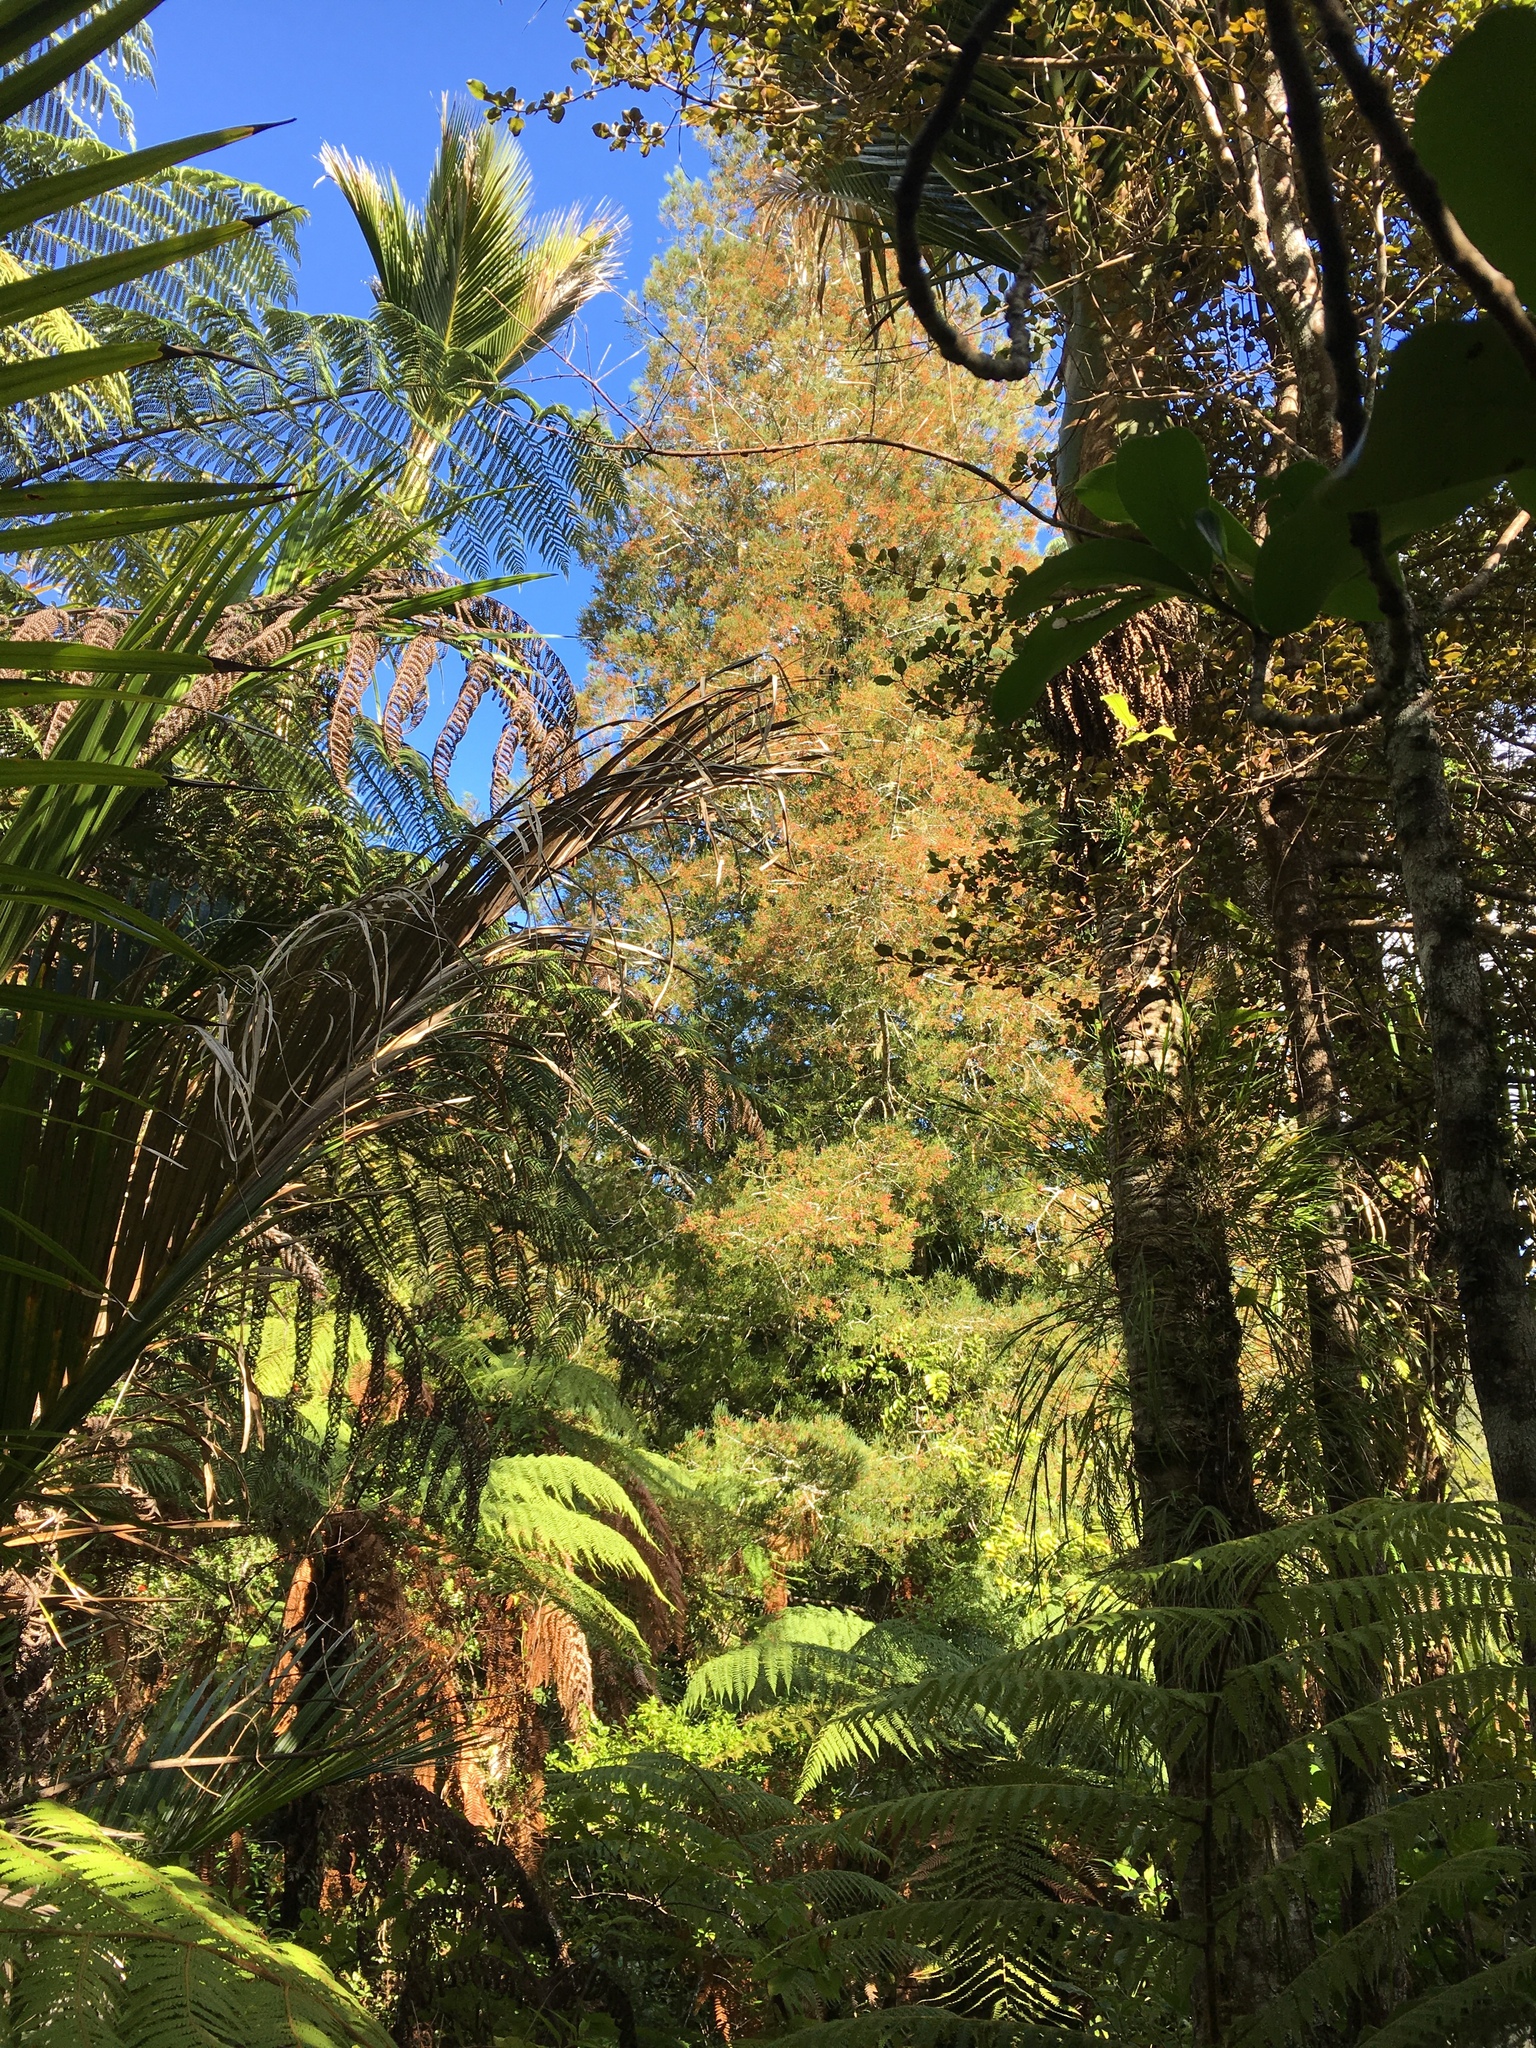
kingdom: Plantae
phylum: Tracheophyta
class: Pinopsida
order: Pinales
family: Podocarpaceae
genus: Dacrycarpus
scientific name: Dacrycarpus dacrydioides
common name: White pine
